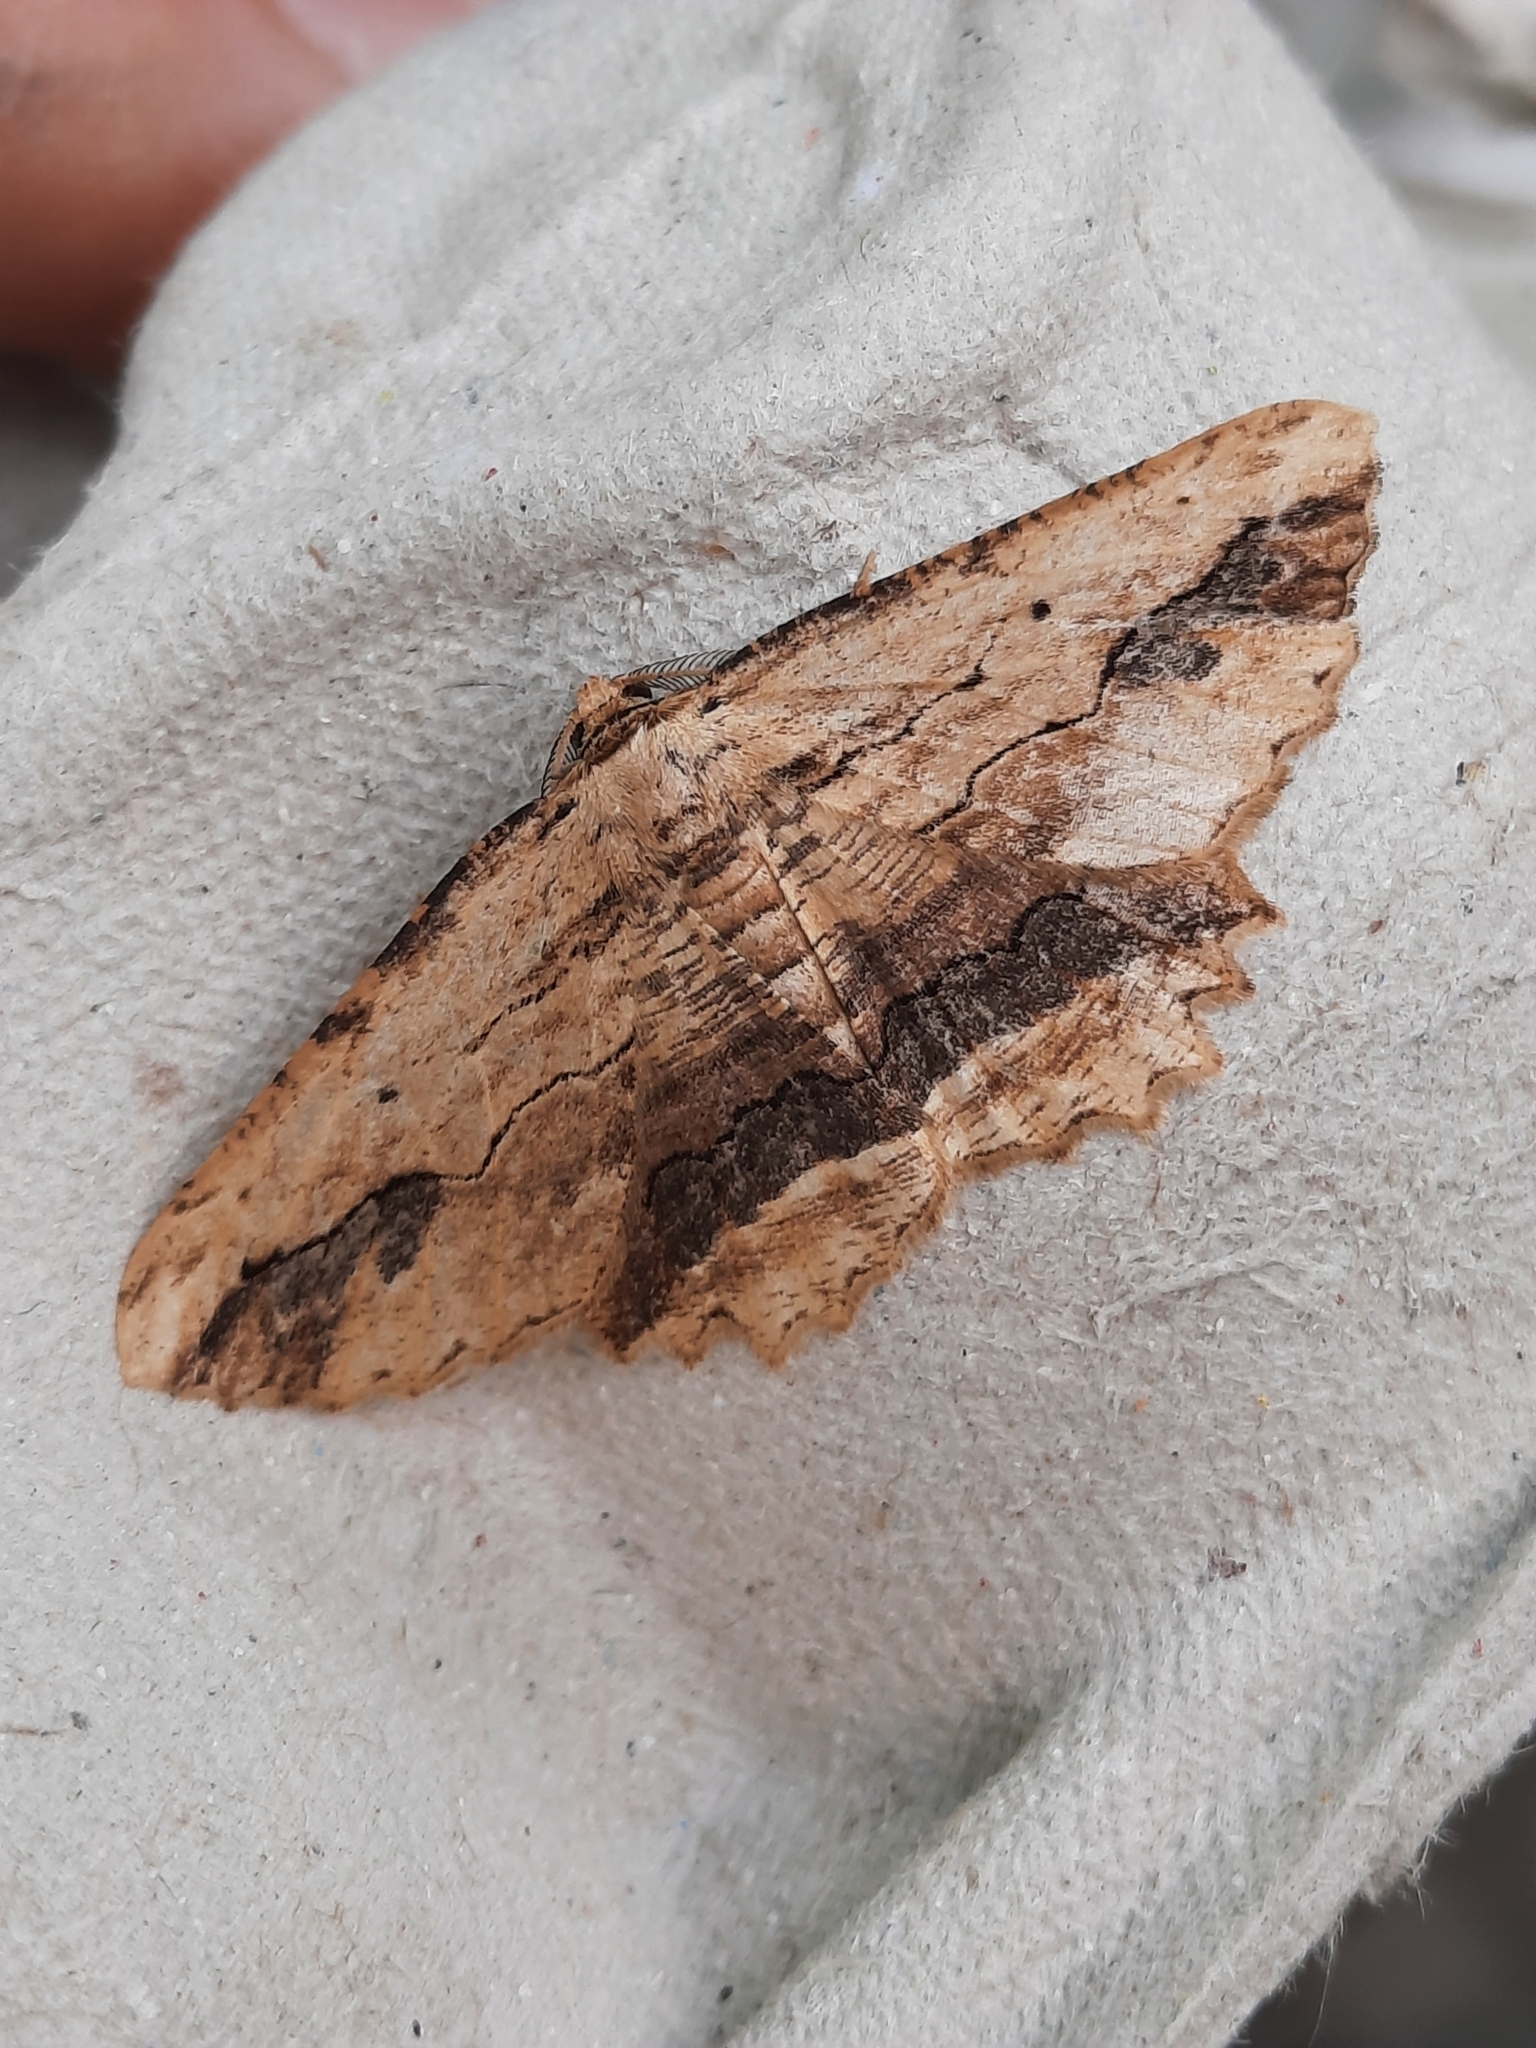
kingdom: Animalia
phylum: Arthropoda
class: Insecta
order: Lepidoptera
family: Geometridae
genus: Menophra
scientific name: Menophra abruptaria
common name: Waved umber
